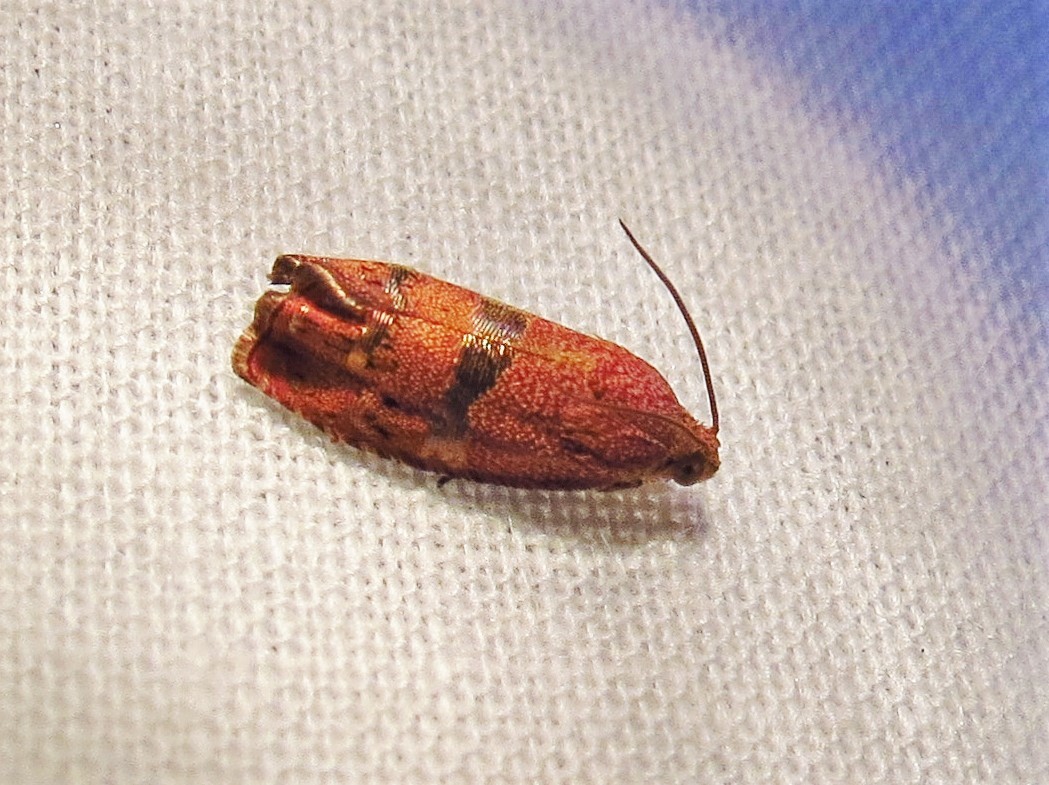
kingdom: Animalia
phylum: Arthropoda
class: Insecta
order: Lepidoptera
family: Tortricidae
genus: Cydia
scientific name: Cydia latiferreana
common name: Filbertworm moth
